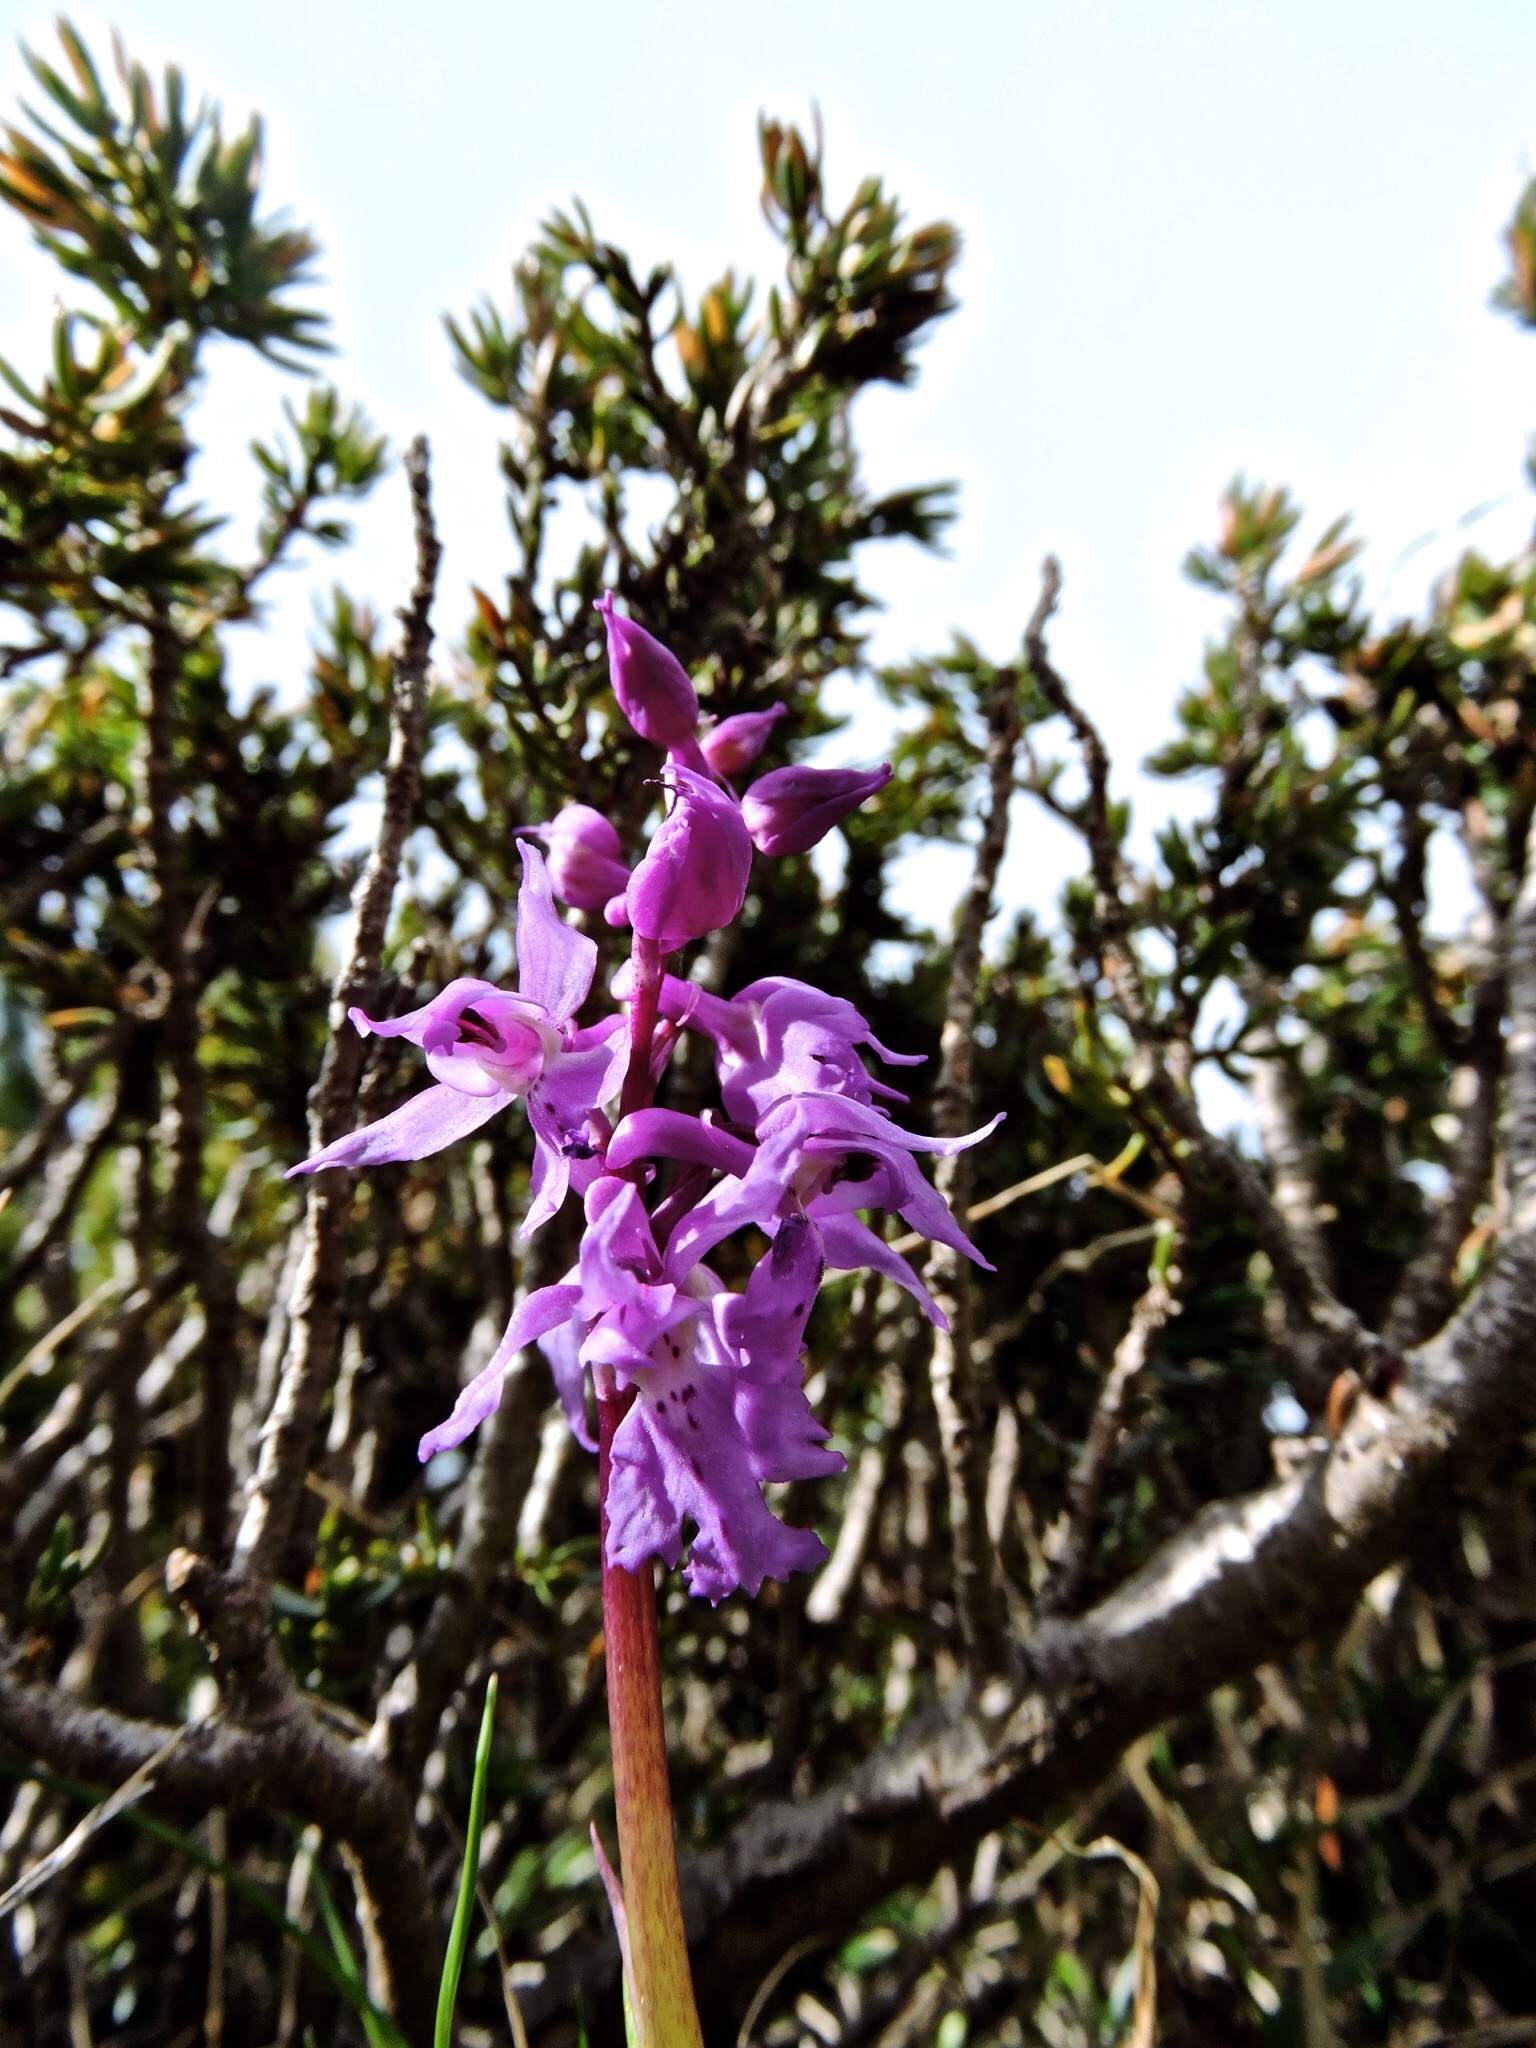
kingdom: Plantae
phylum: Tracheophyta
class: Liliopsida
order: Asparagales
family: Orchidaceae
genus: Orchis
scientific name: Orchis mascula
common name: Early-purple orchid
